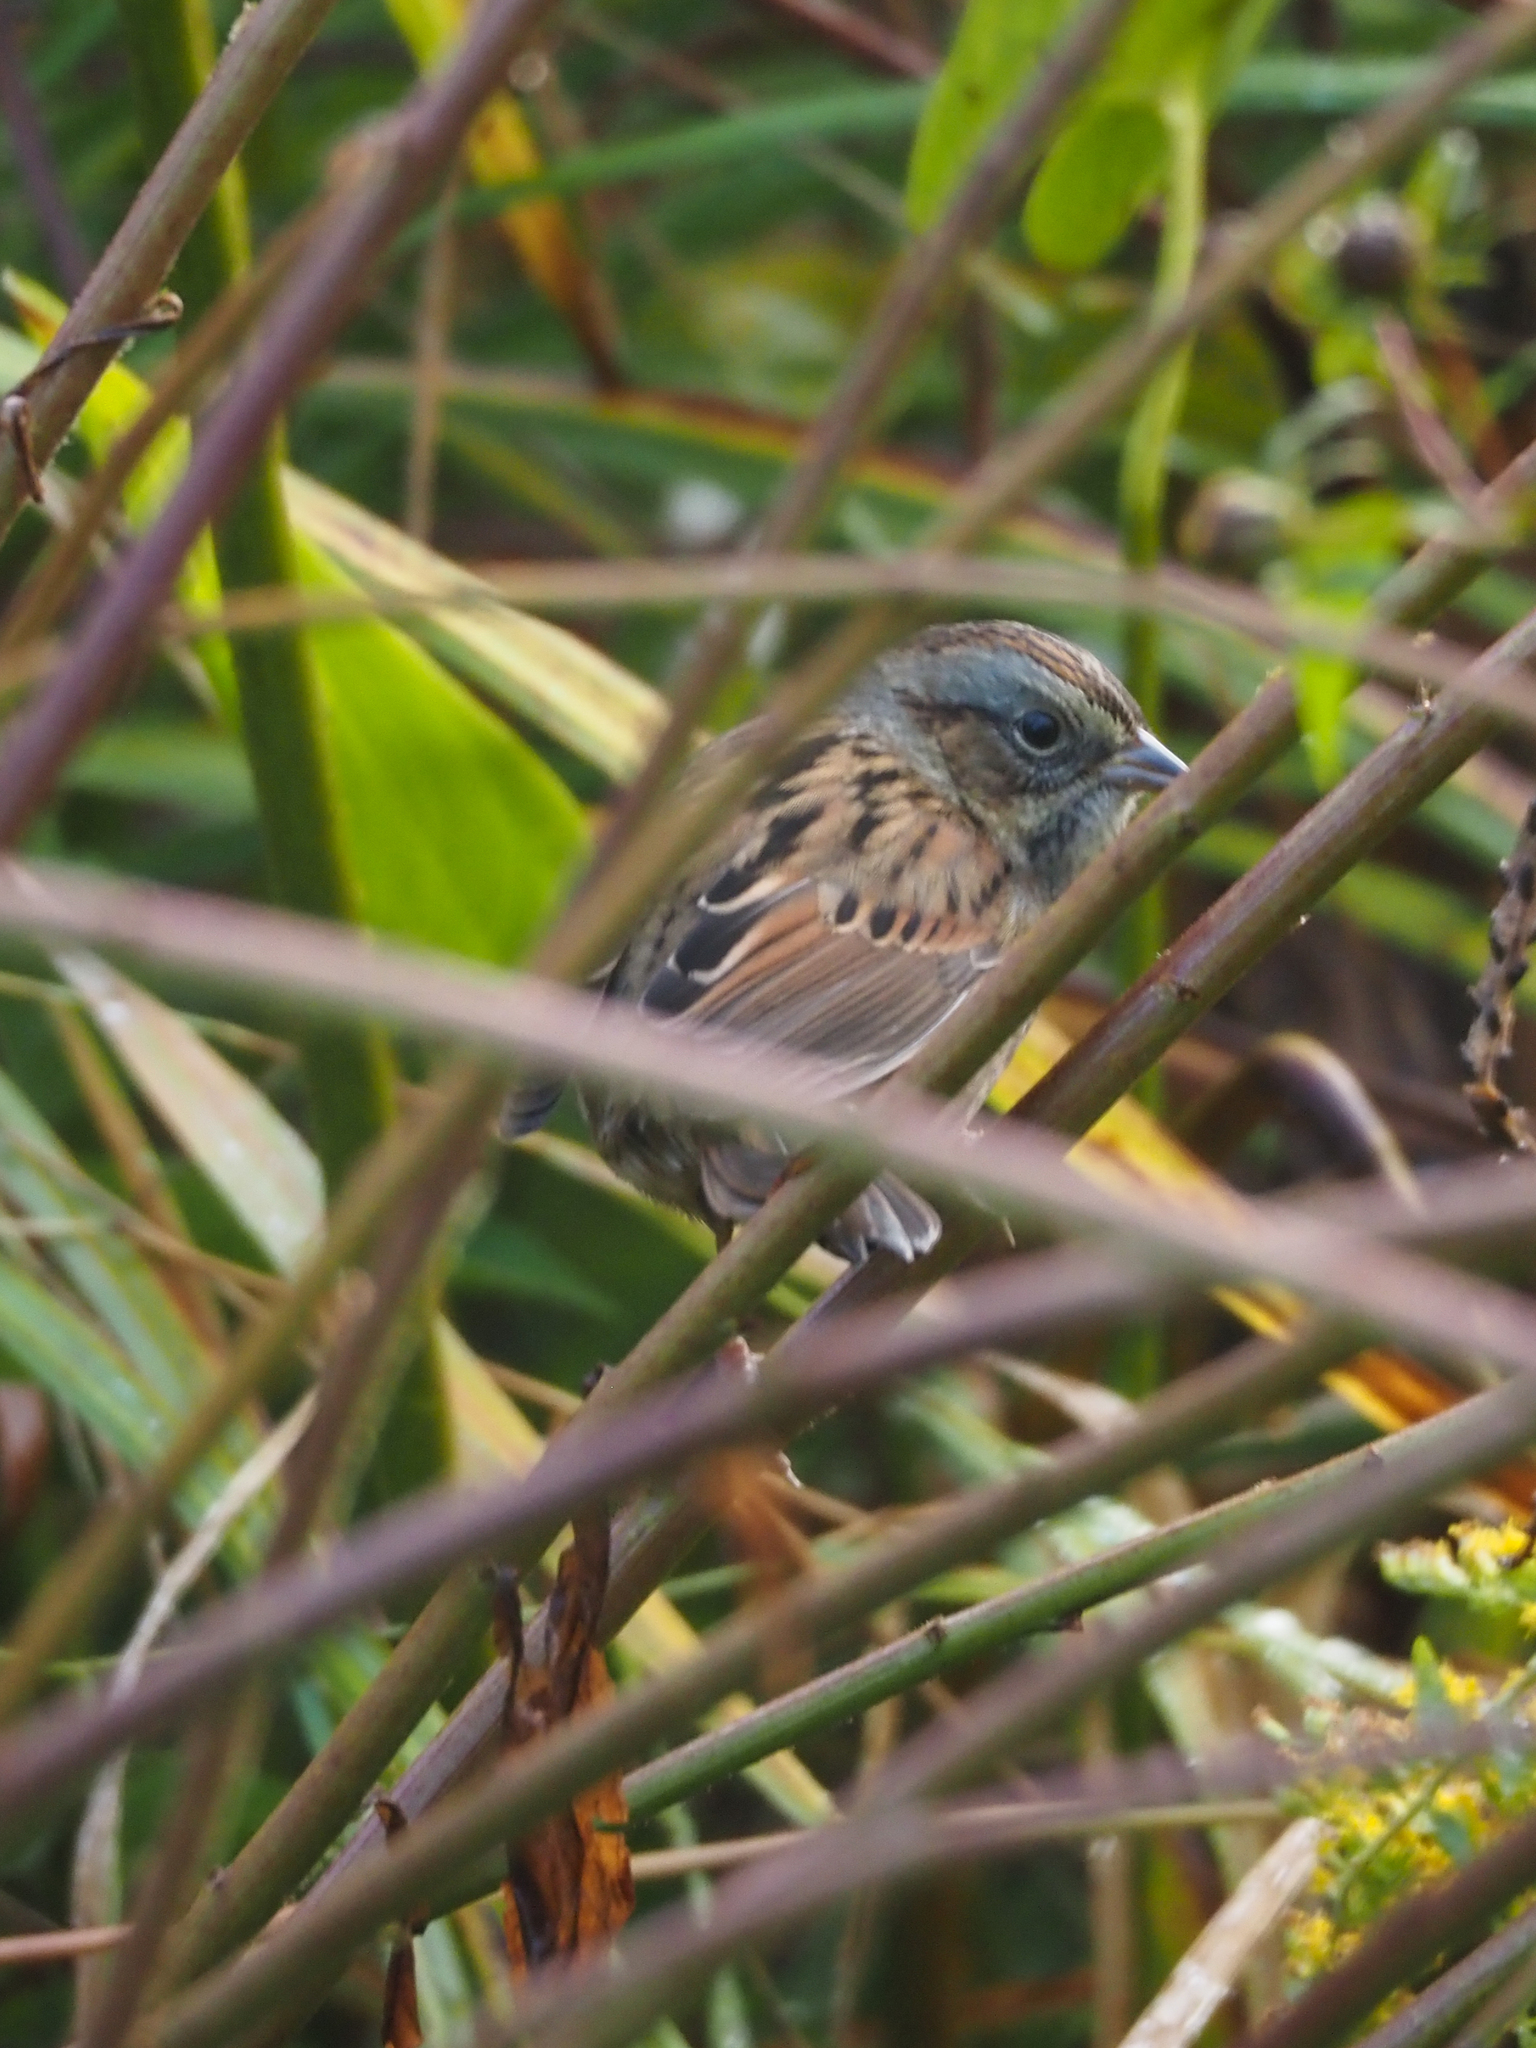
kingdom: Animalia
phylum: Chordata
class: Aves
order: Passeriformes
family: Passerellidae
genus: Melospiza
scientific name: Melospiza georgiana
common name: Swamp sparrow
